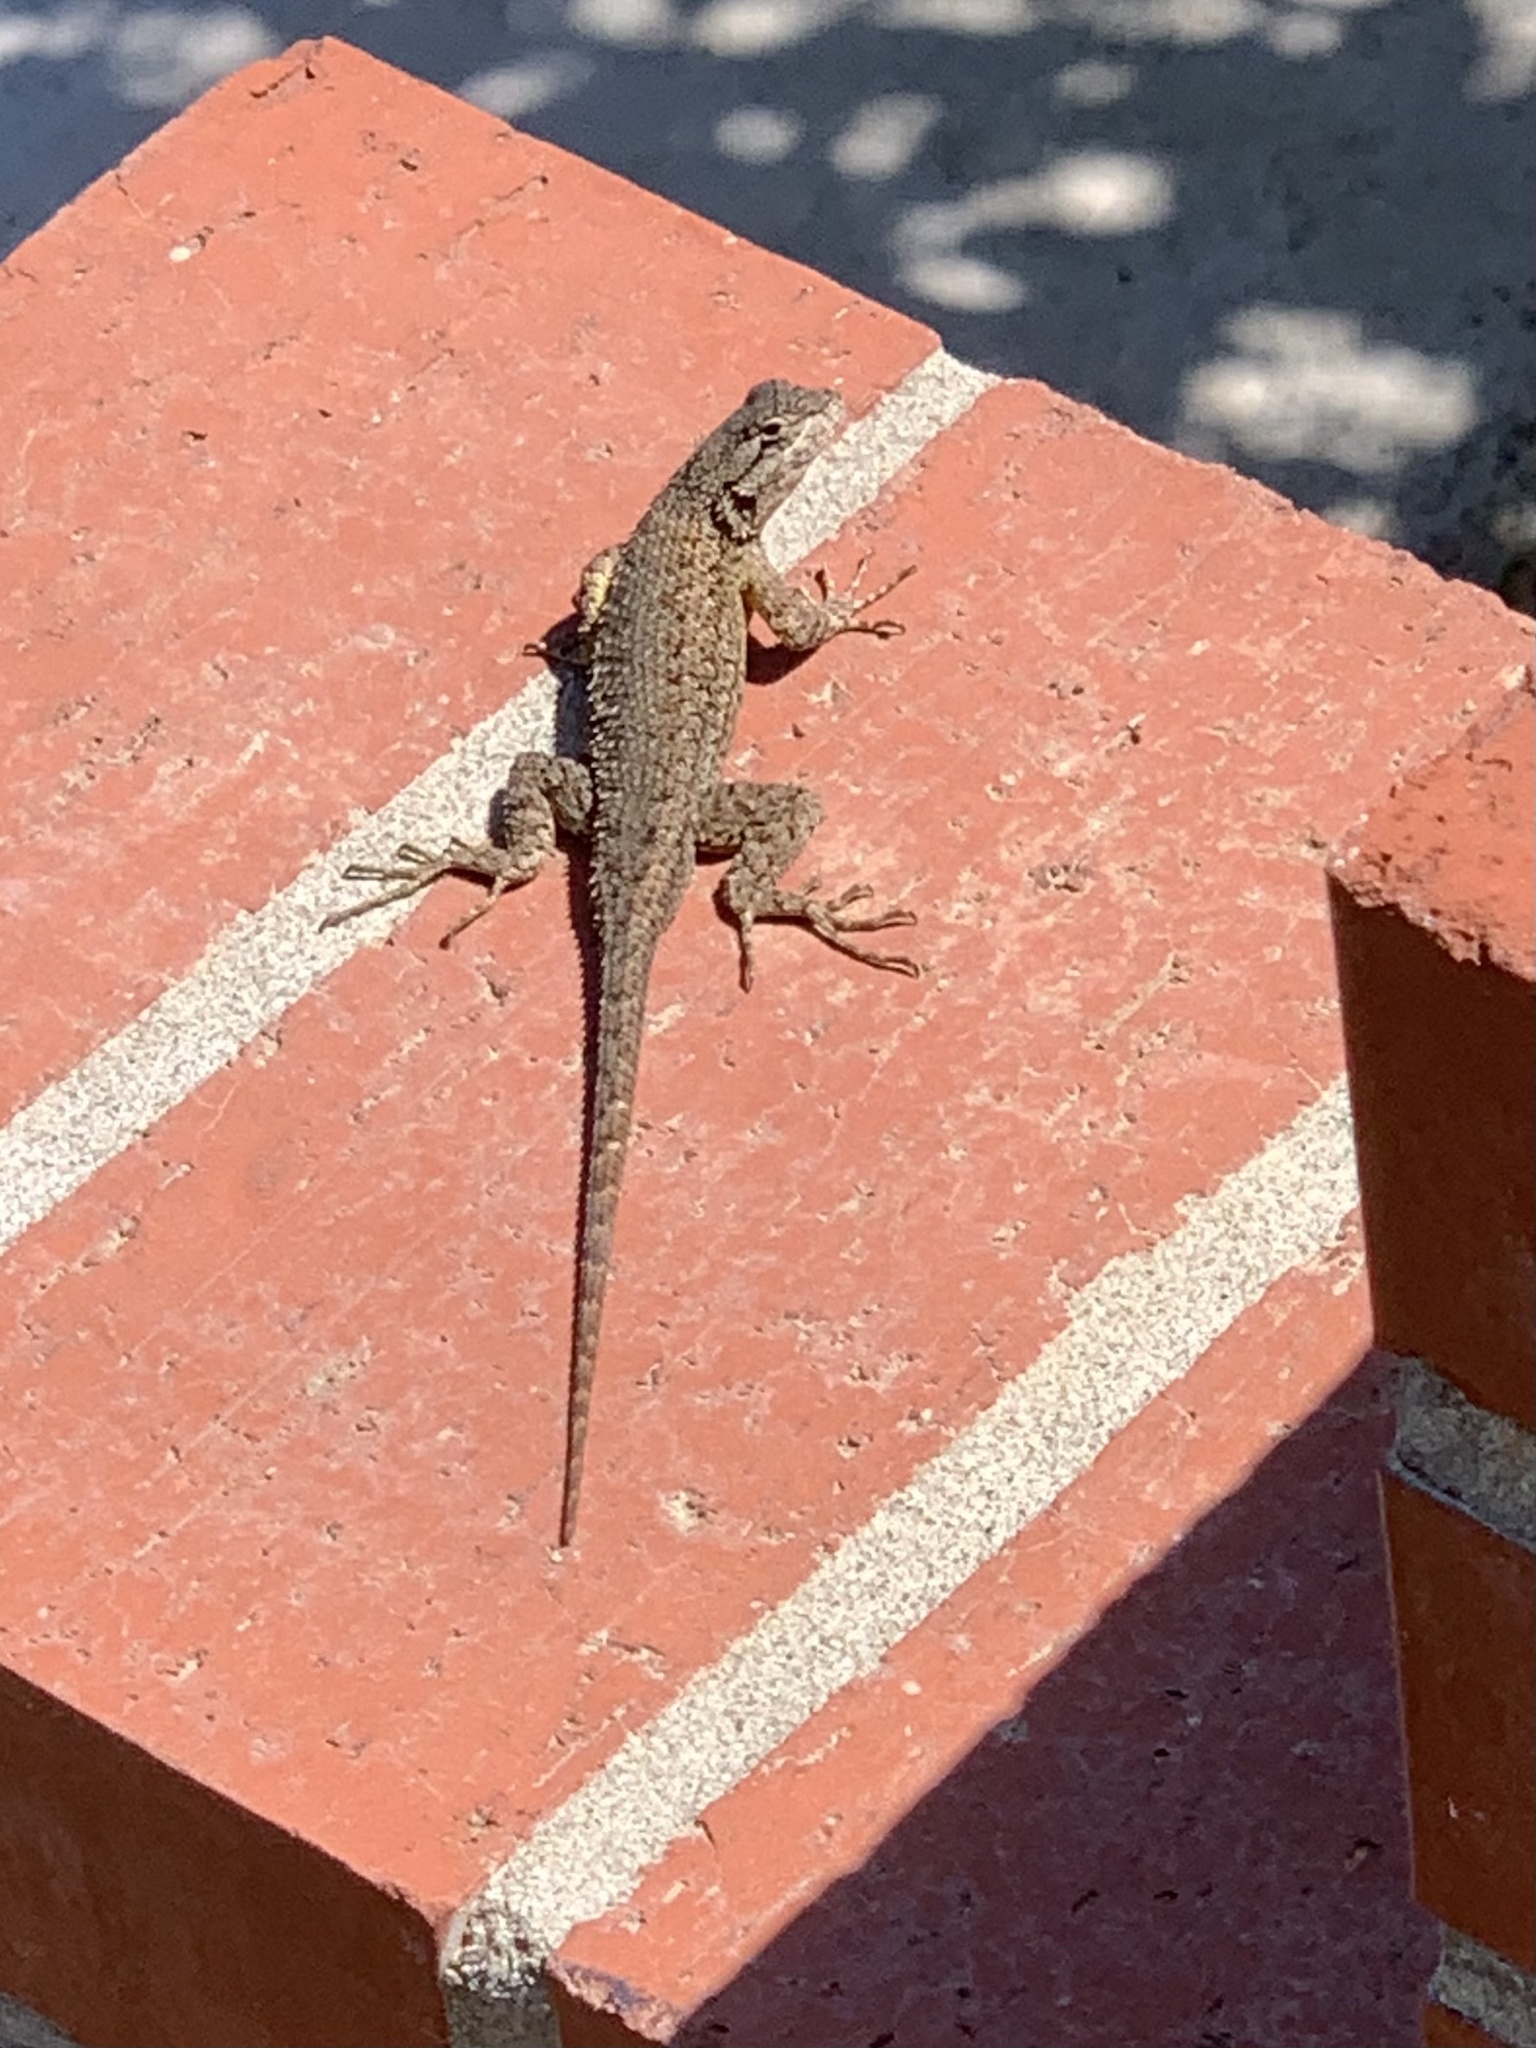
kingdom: Animalia
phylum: Chordata
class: Squamata
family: Phrynosomatidae
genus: Sceloporus
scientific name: Sceloporus occidentalis
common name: Western fence lizard
